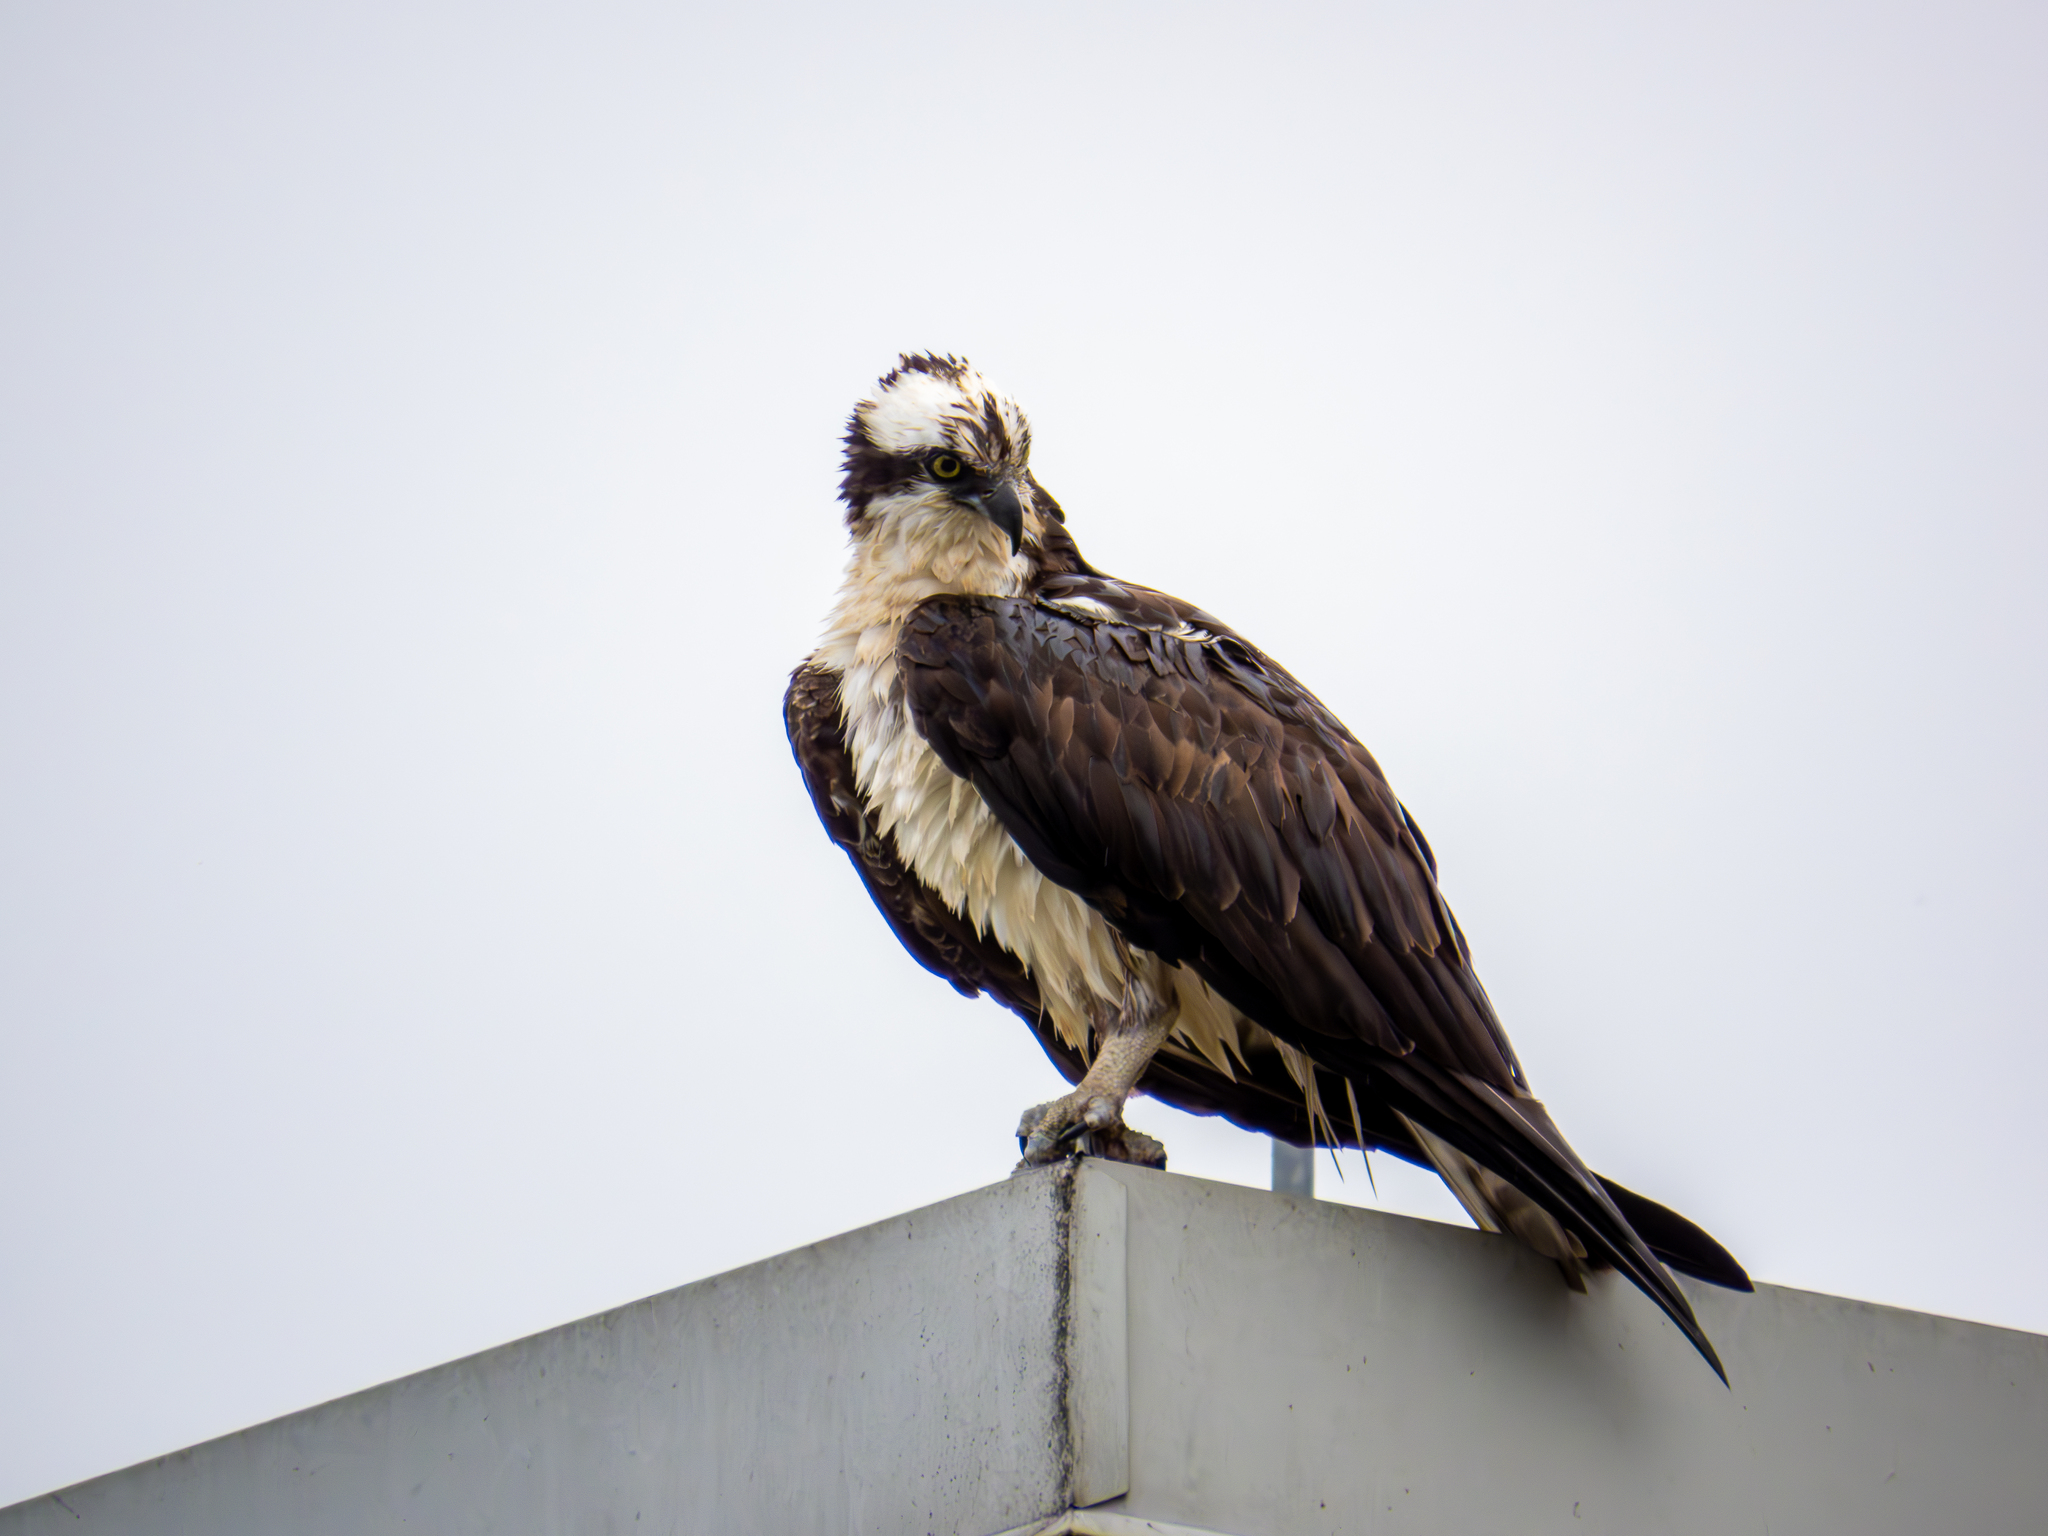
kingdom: Animalia
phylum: Chordata
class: Aves
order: Accipitriformes
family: Pandionidae
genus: Pandion
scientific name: Pandion haliaetus
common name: Osprey
